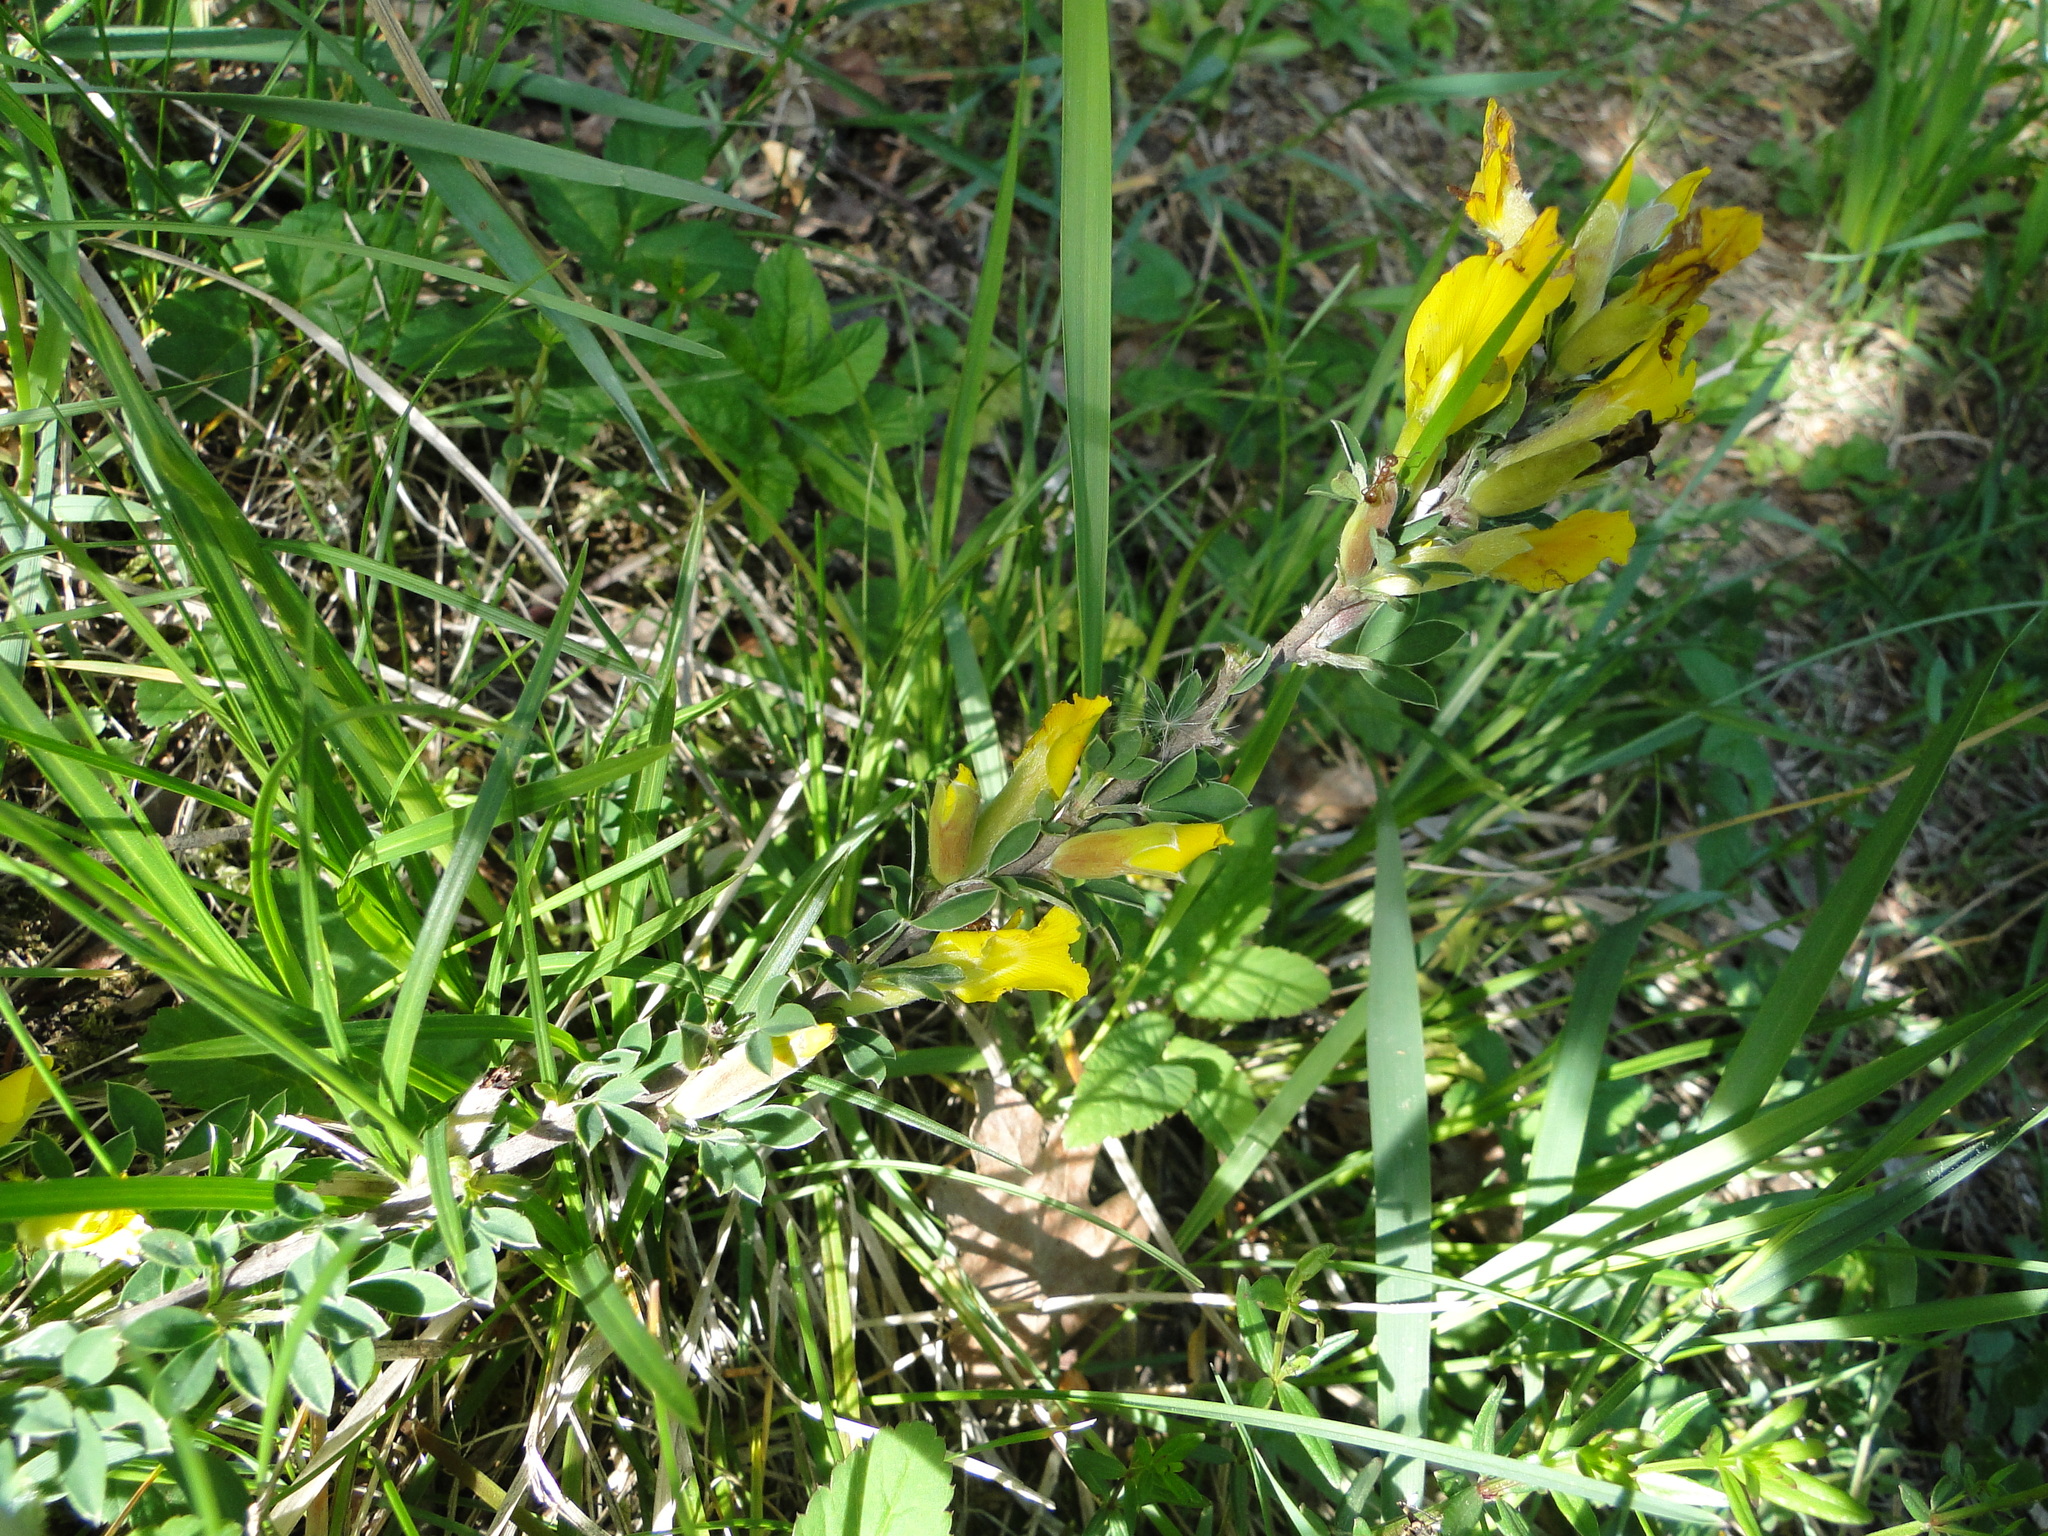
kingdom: Plantae
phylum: Tracheophyta
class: Magnoliopsida
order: Fabales
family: Fabaceae
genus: Chamaecytisus
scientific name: Chamaecytisus ratisbonensis
